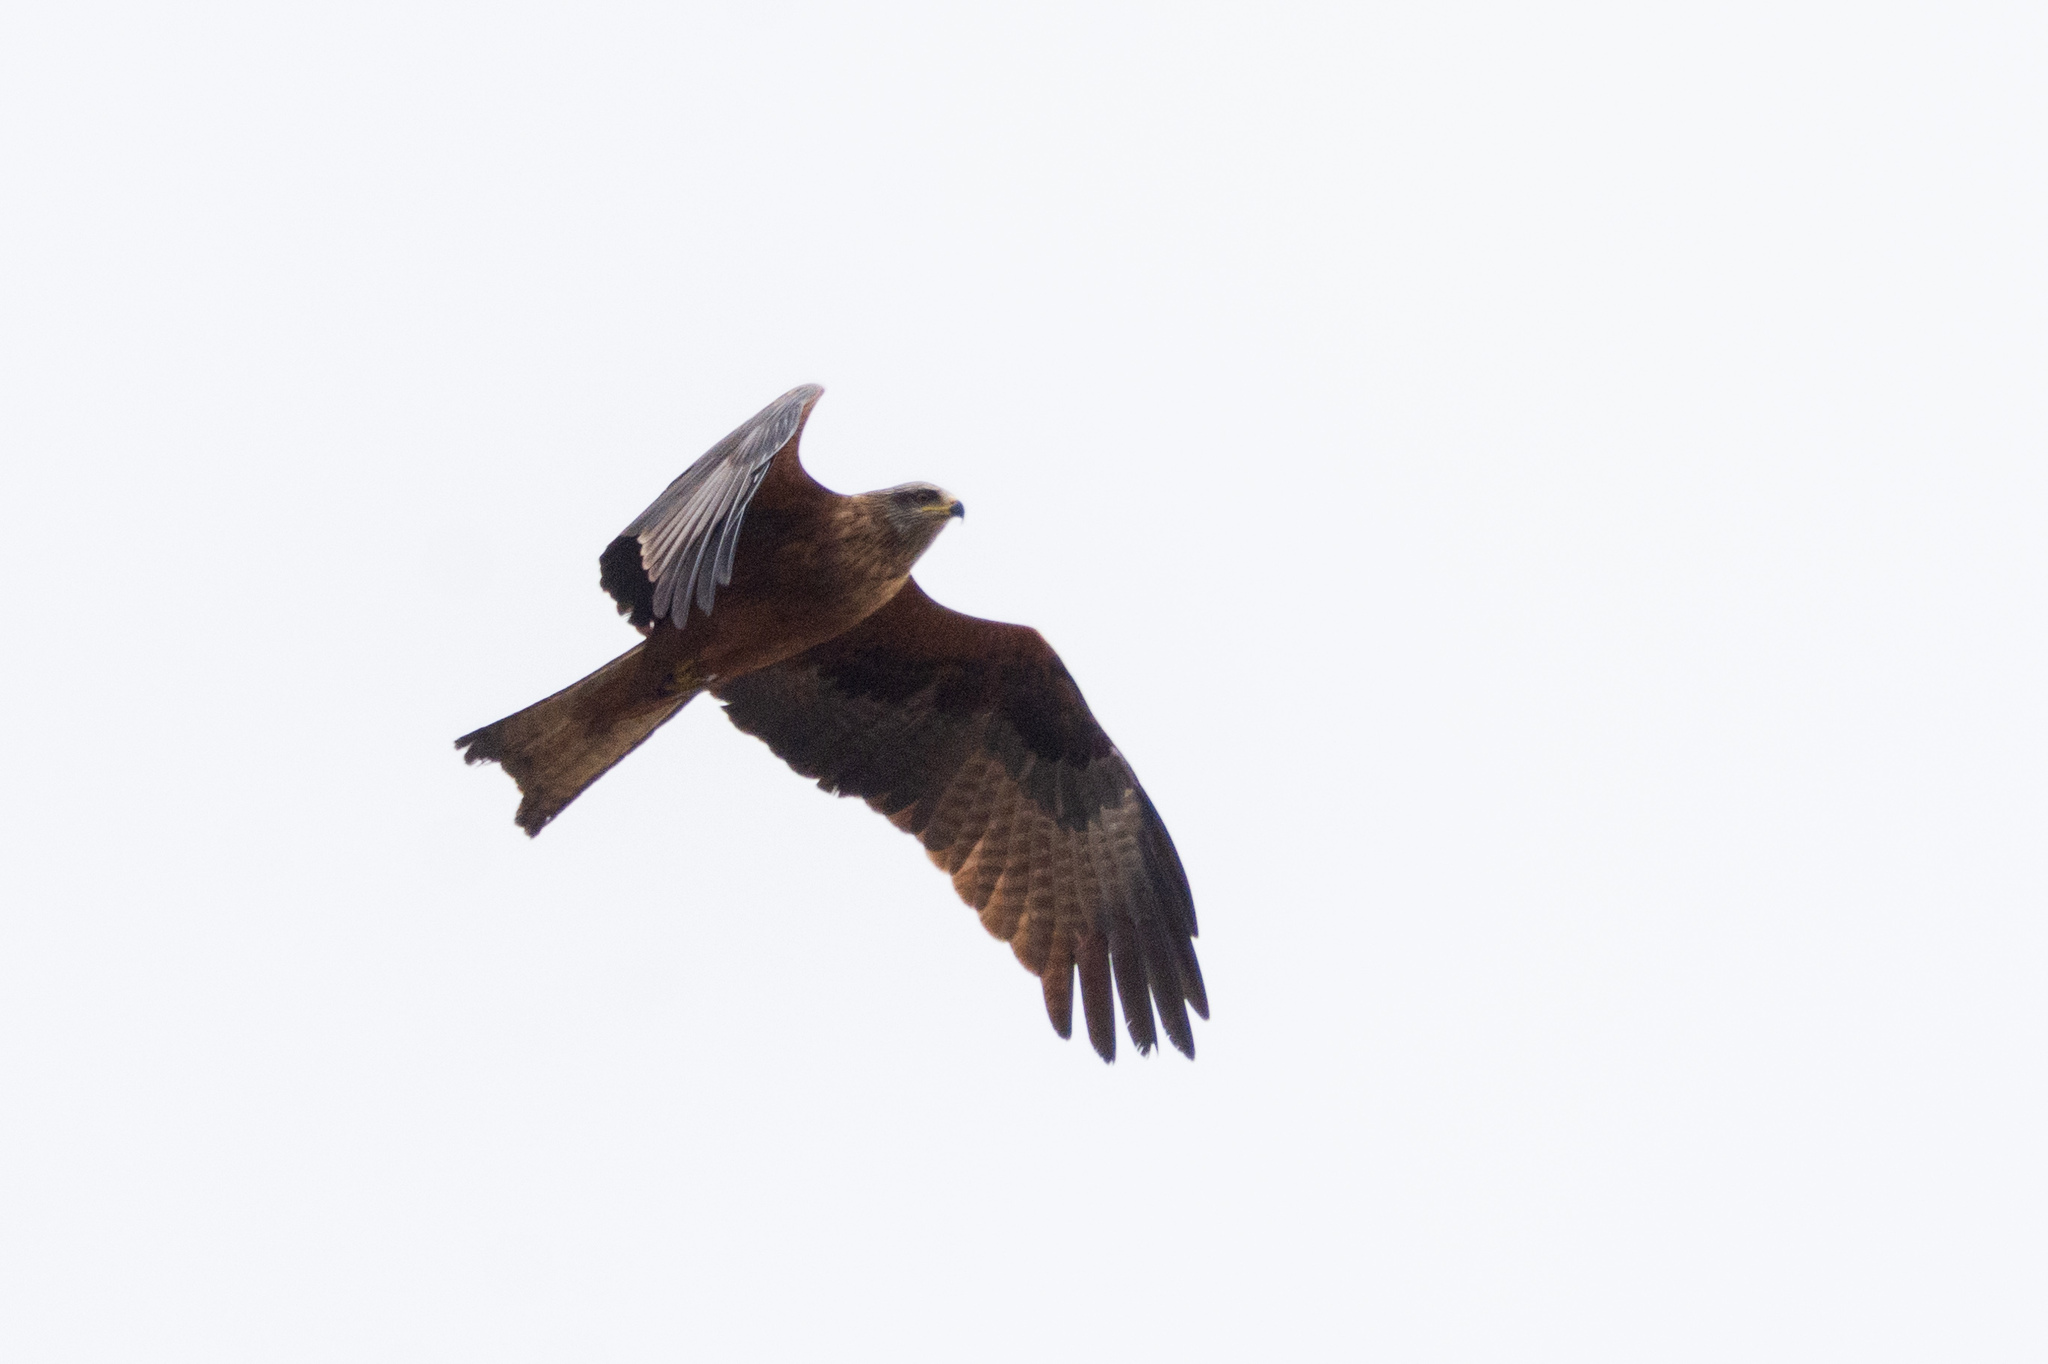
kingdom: Animalia
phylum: Chordata
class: Aves
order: Accipitriformes
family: Accipitridae
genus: Milvus
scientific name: Milvus migrans
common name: Black kite
